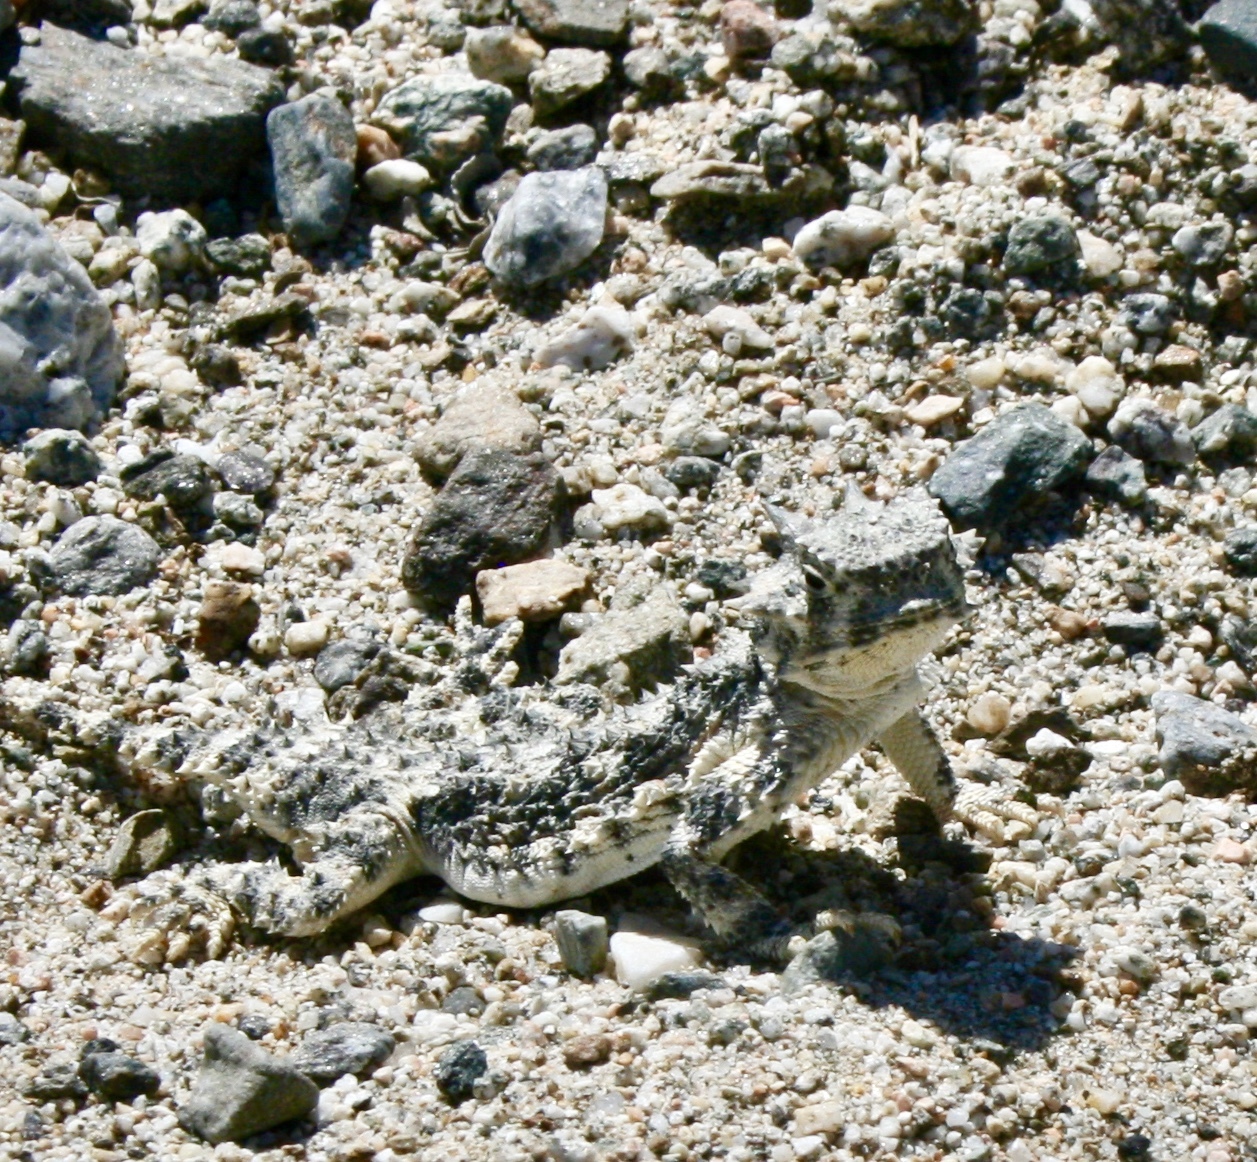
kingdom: Animalia
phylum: Chordata
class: Squamata
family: Phrynosomatidae
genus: Phrynosoma
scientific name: Phrynosoma platyrhinos
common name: Desert horned lizard
